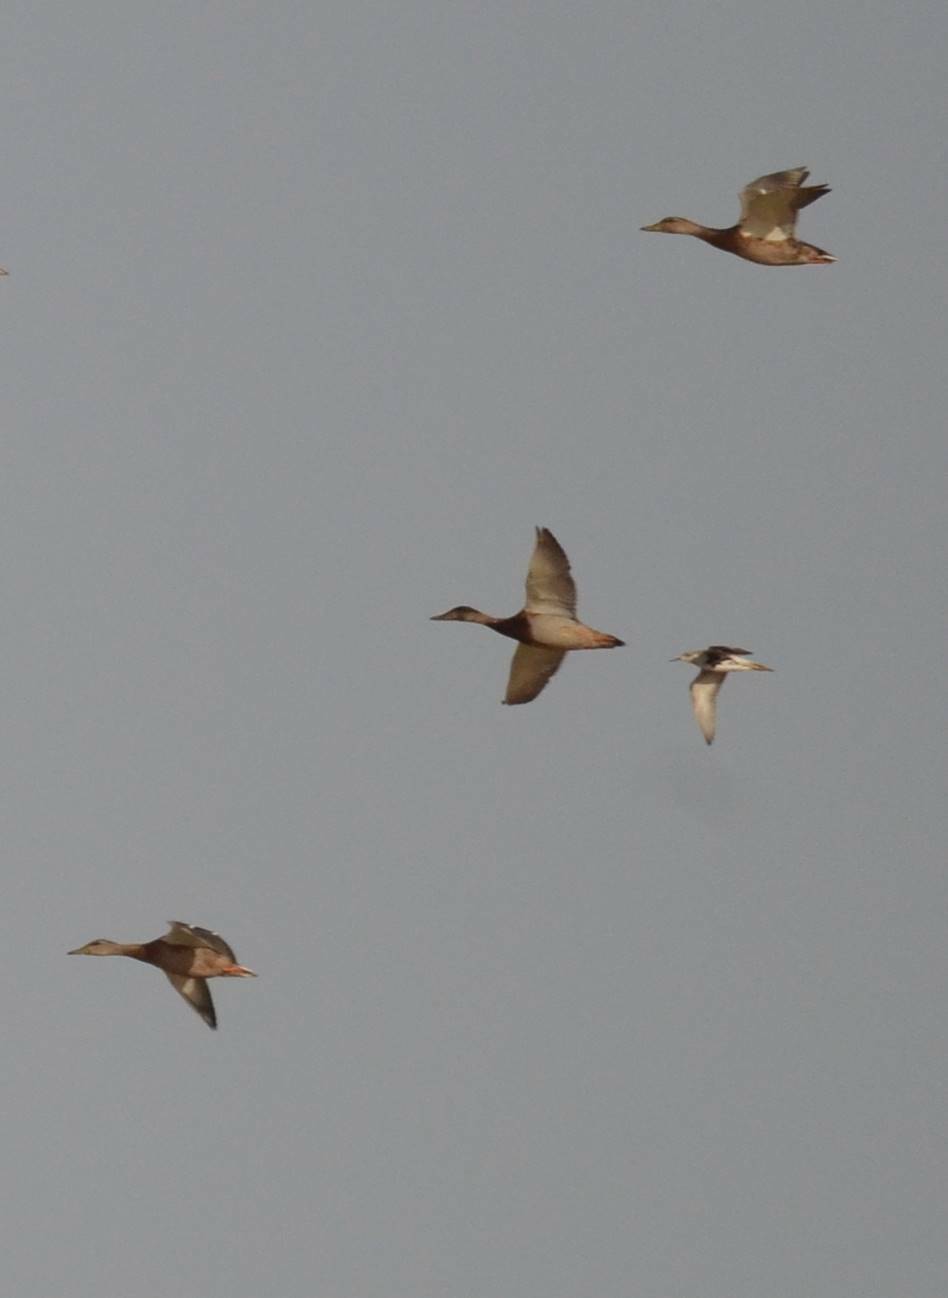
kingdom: Animalia
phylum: Chordata
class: Aves
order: Anseriformes
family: Anatidae
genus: Anas
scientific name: Anas platyrhynchos
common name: Mallard
